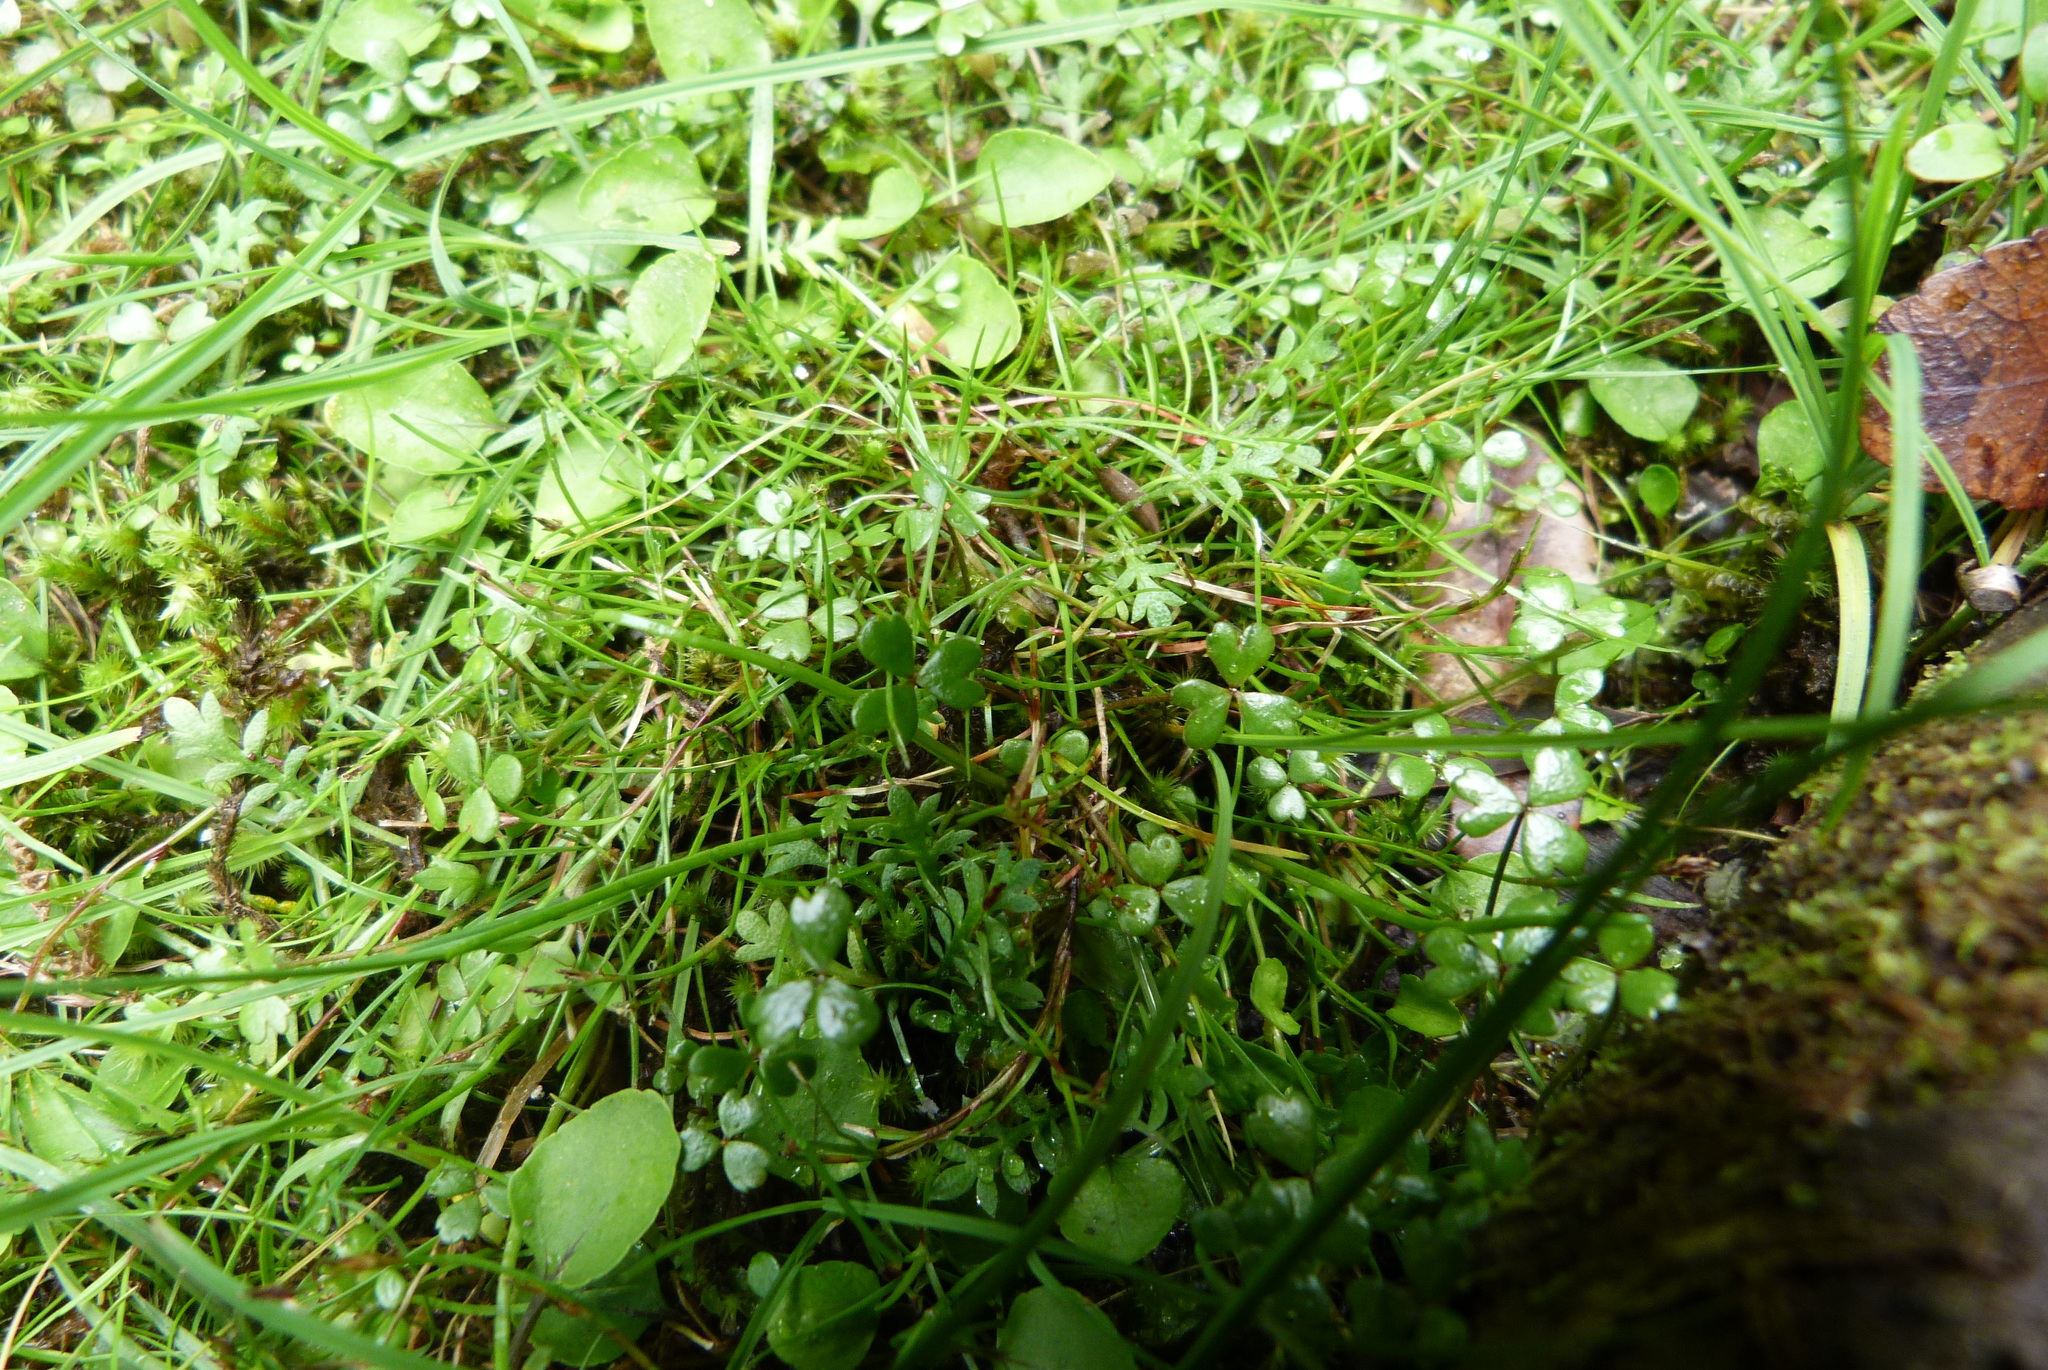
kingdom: Plantae
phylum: Tracheophyta
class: Liliopsida
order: Poales
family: Cyperaceae
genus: Schoenus
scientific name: Schoenus maschalinus
